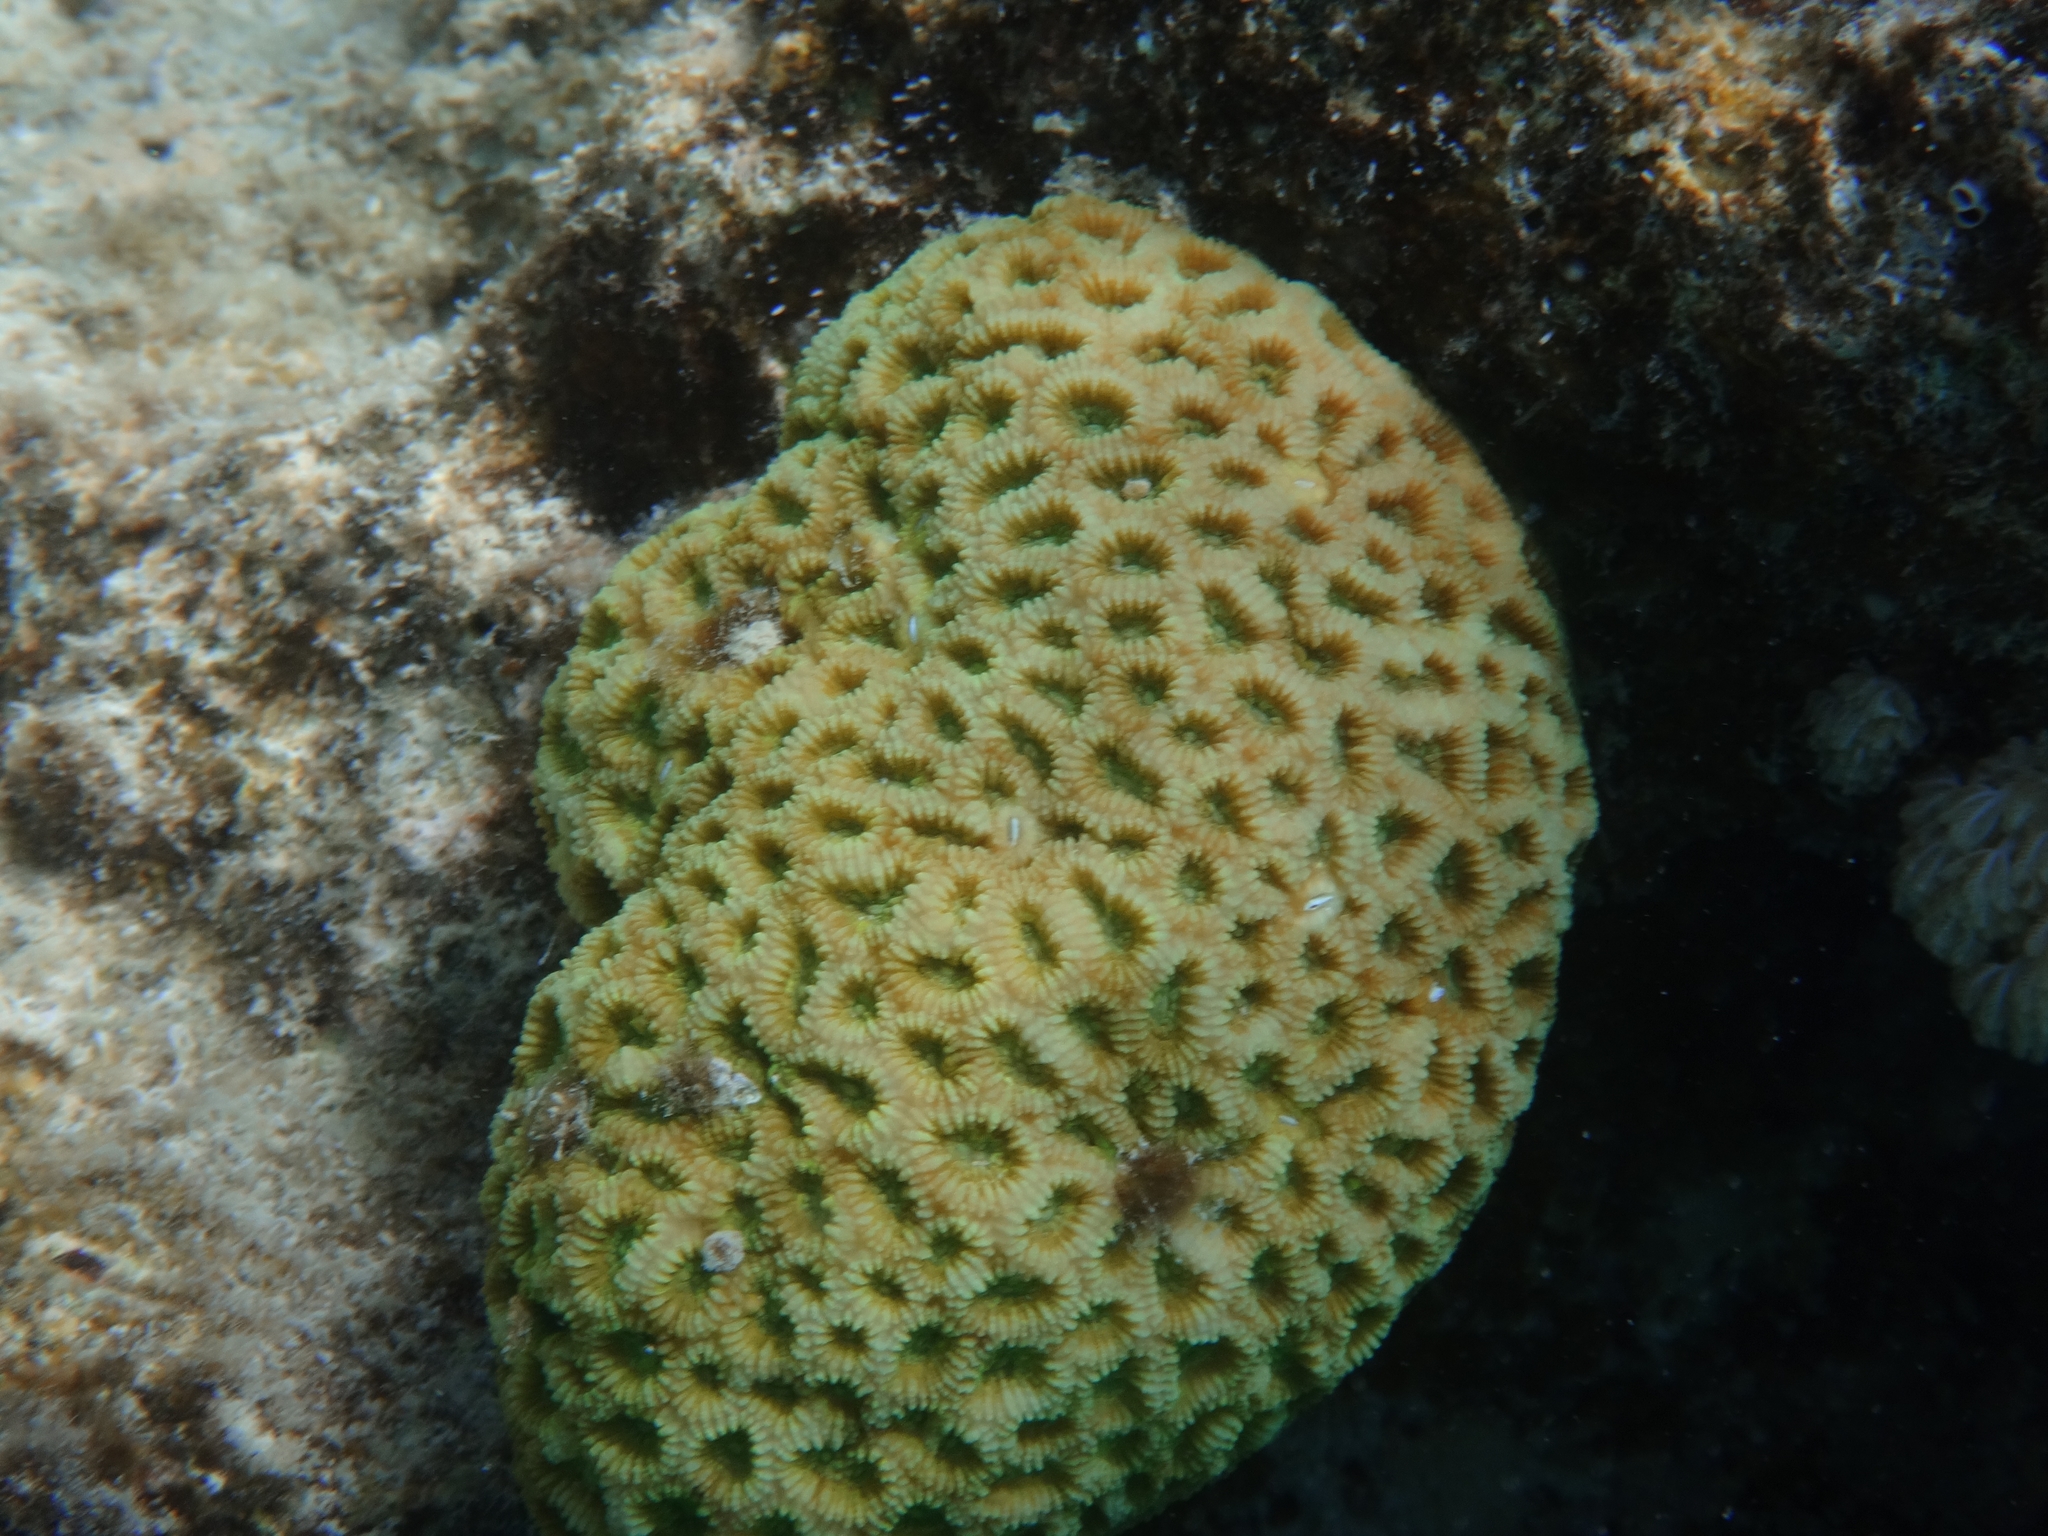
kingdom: Animalia
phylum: Cnidaria
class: Anthozoa
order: Scleractinia
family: Merulinidae
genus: Dipsastraea
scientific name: Dipsastraea
